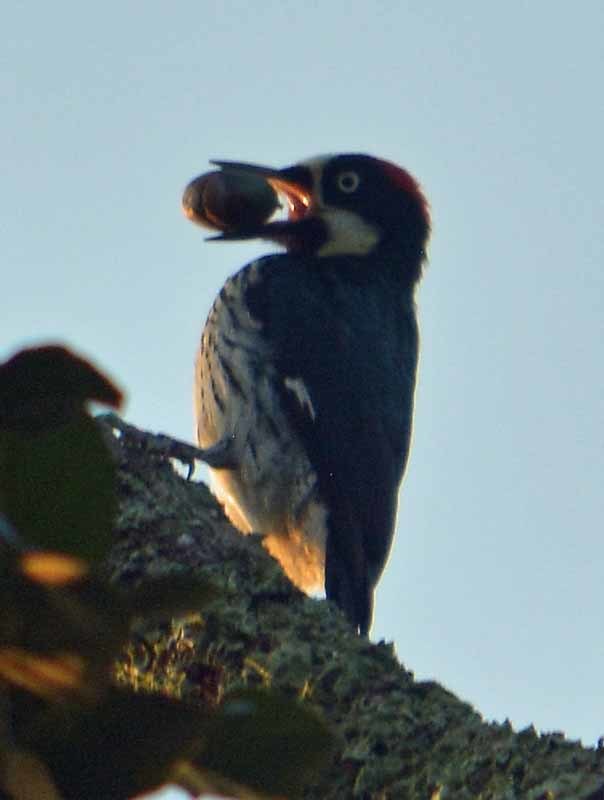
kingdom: Animalia
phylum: Chordata
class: Aves
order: Piciformes
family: Picidae
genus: Melanerpes
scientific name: Melanerpes formicivorus
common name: Acorn woodpecker
